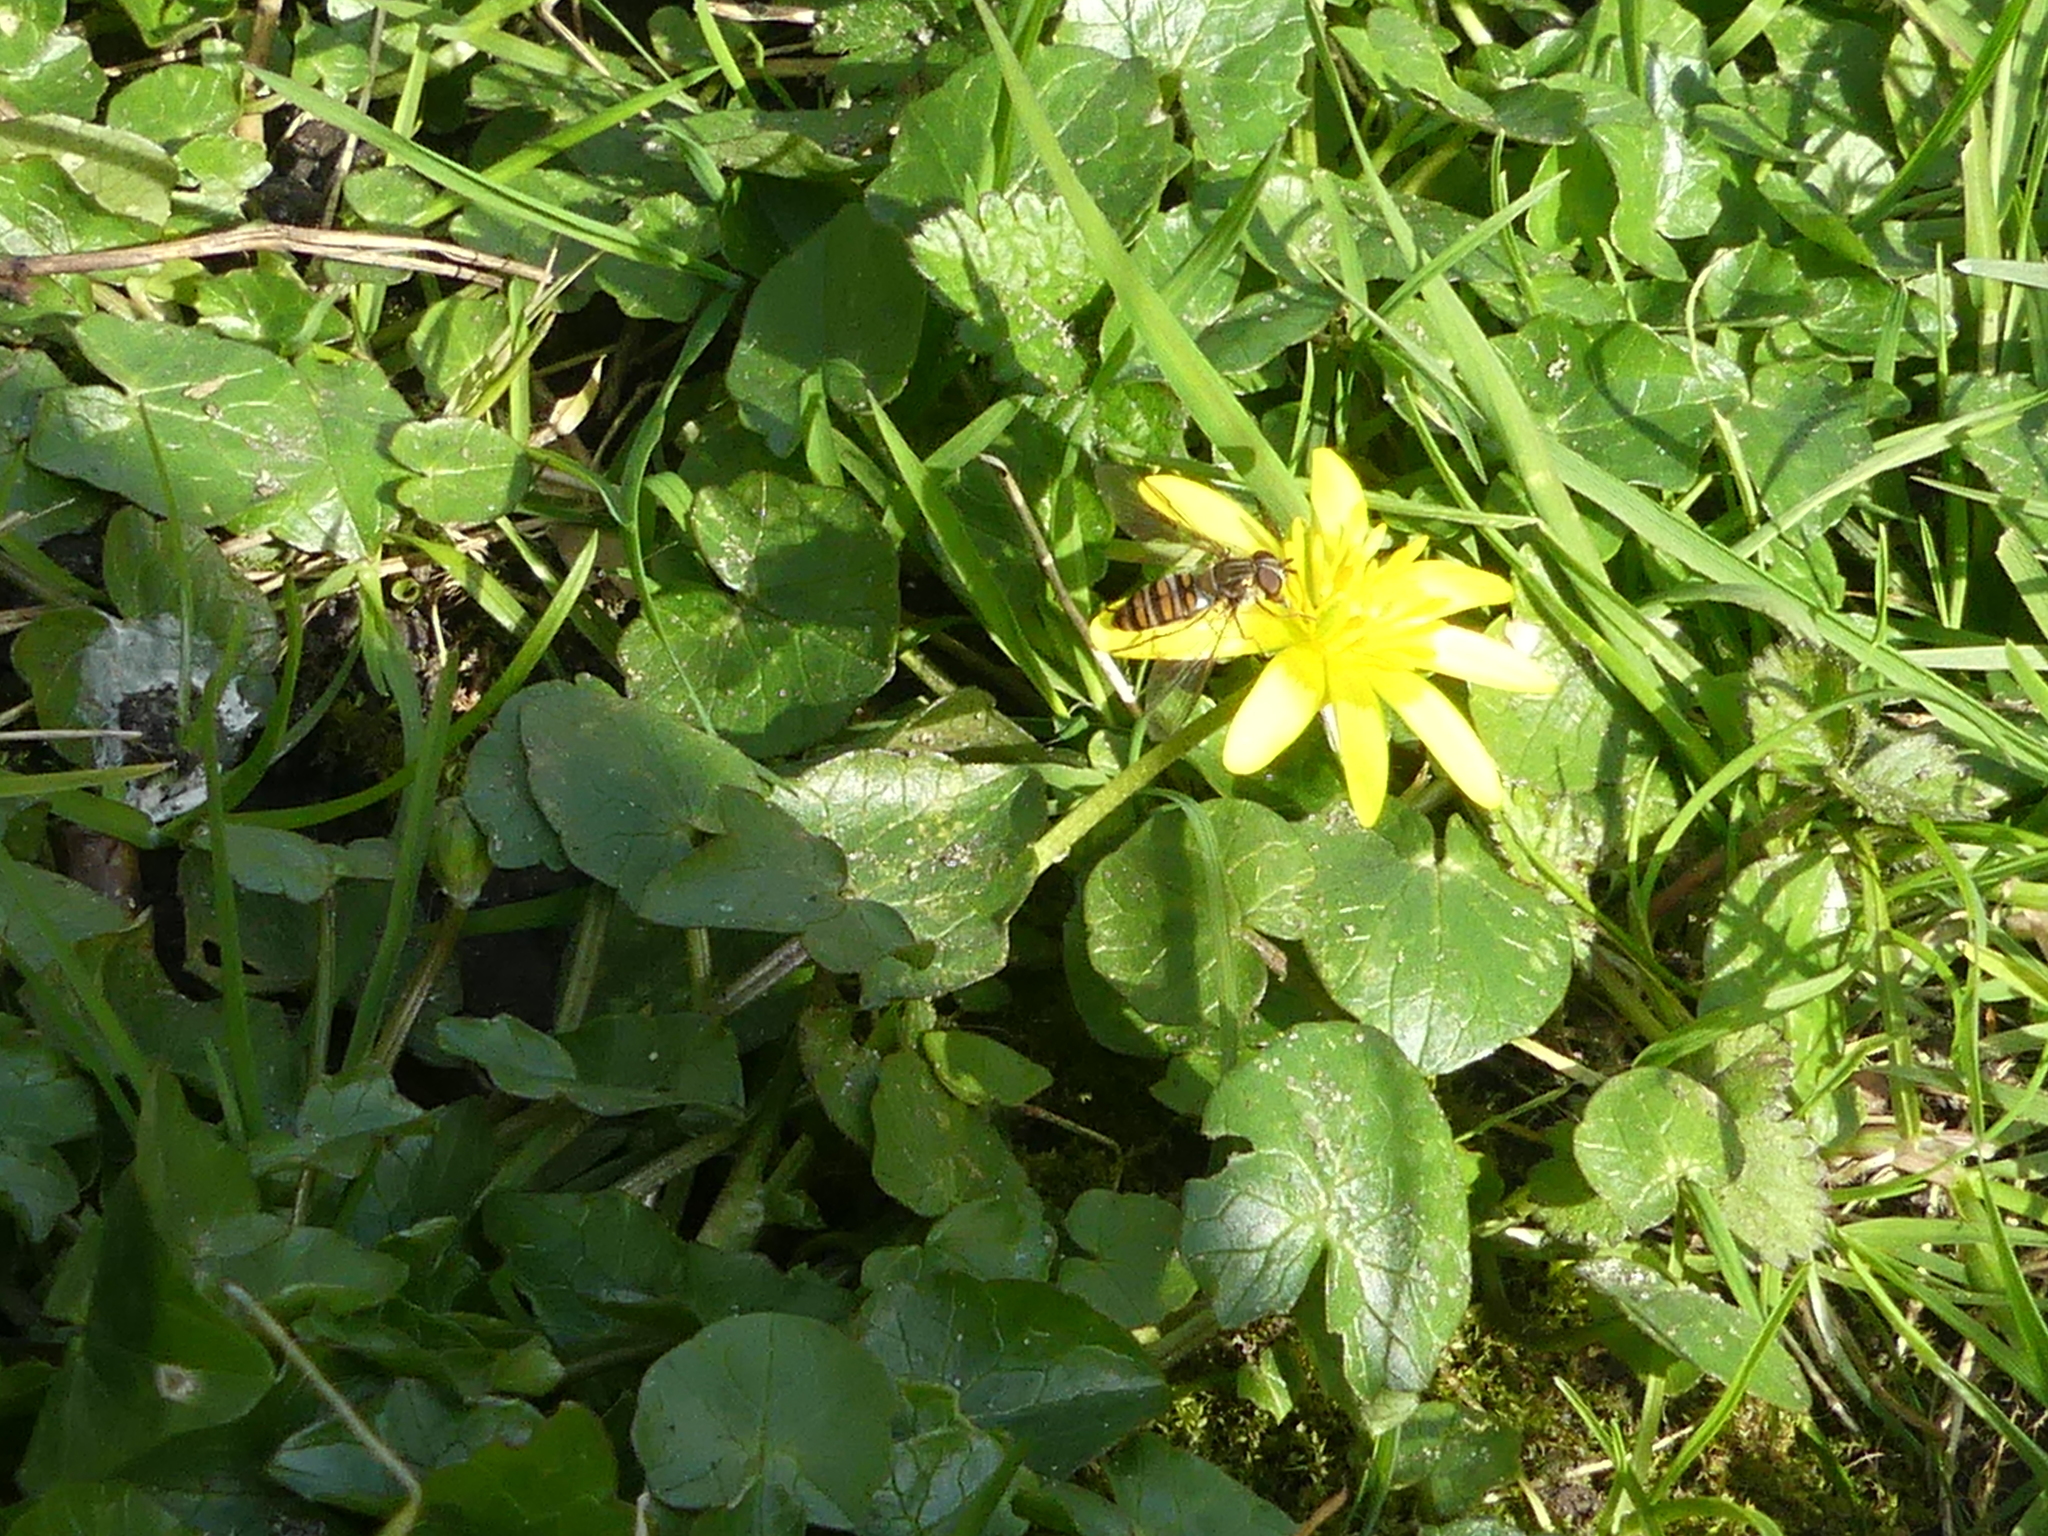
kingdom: Animalia
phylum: Arthropoda
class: Insecta
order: Diptera
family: Syrphidae
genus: Episyrphus
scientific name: Episyrphus balteatus
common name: Marmalade hoverfly
